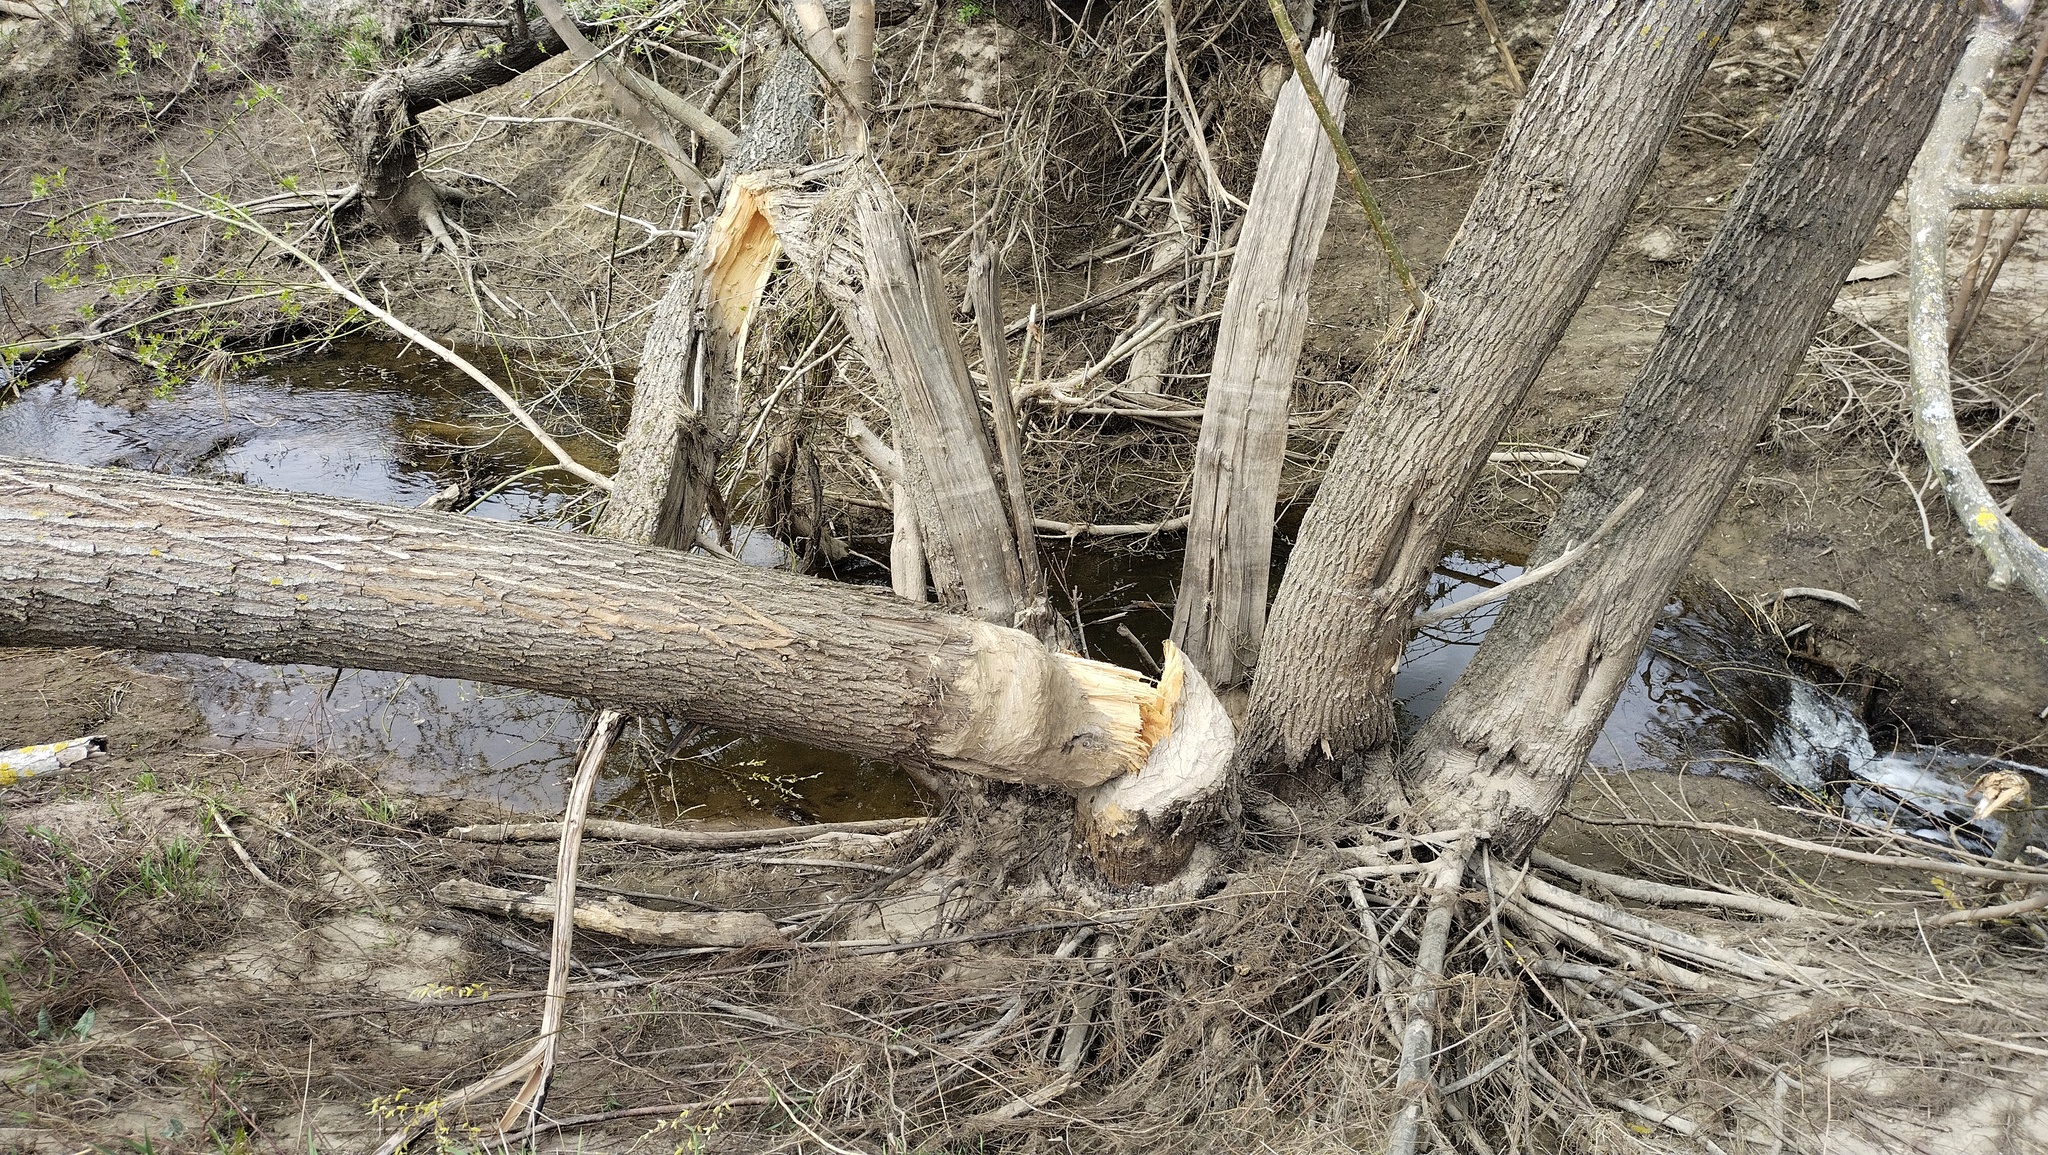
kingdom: Animalia
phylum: Chordata
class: Mammalia
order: Rodentia
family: Castoridae
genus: Castor
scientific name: Castor fiber
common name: Eurasian beaver
